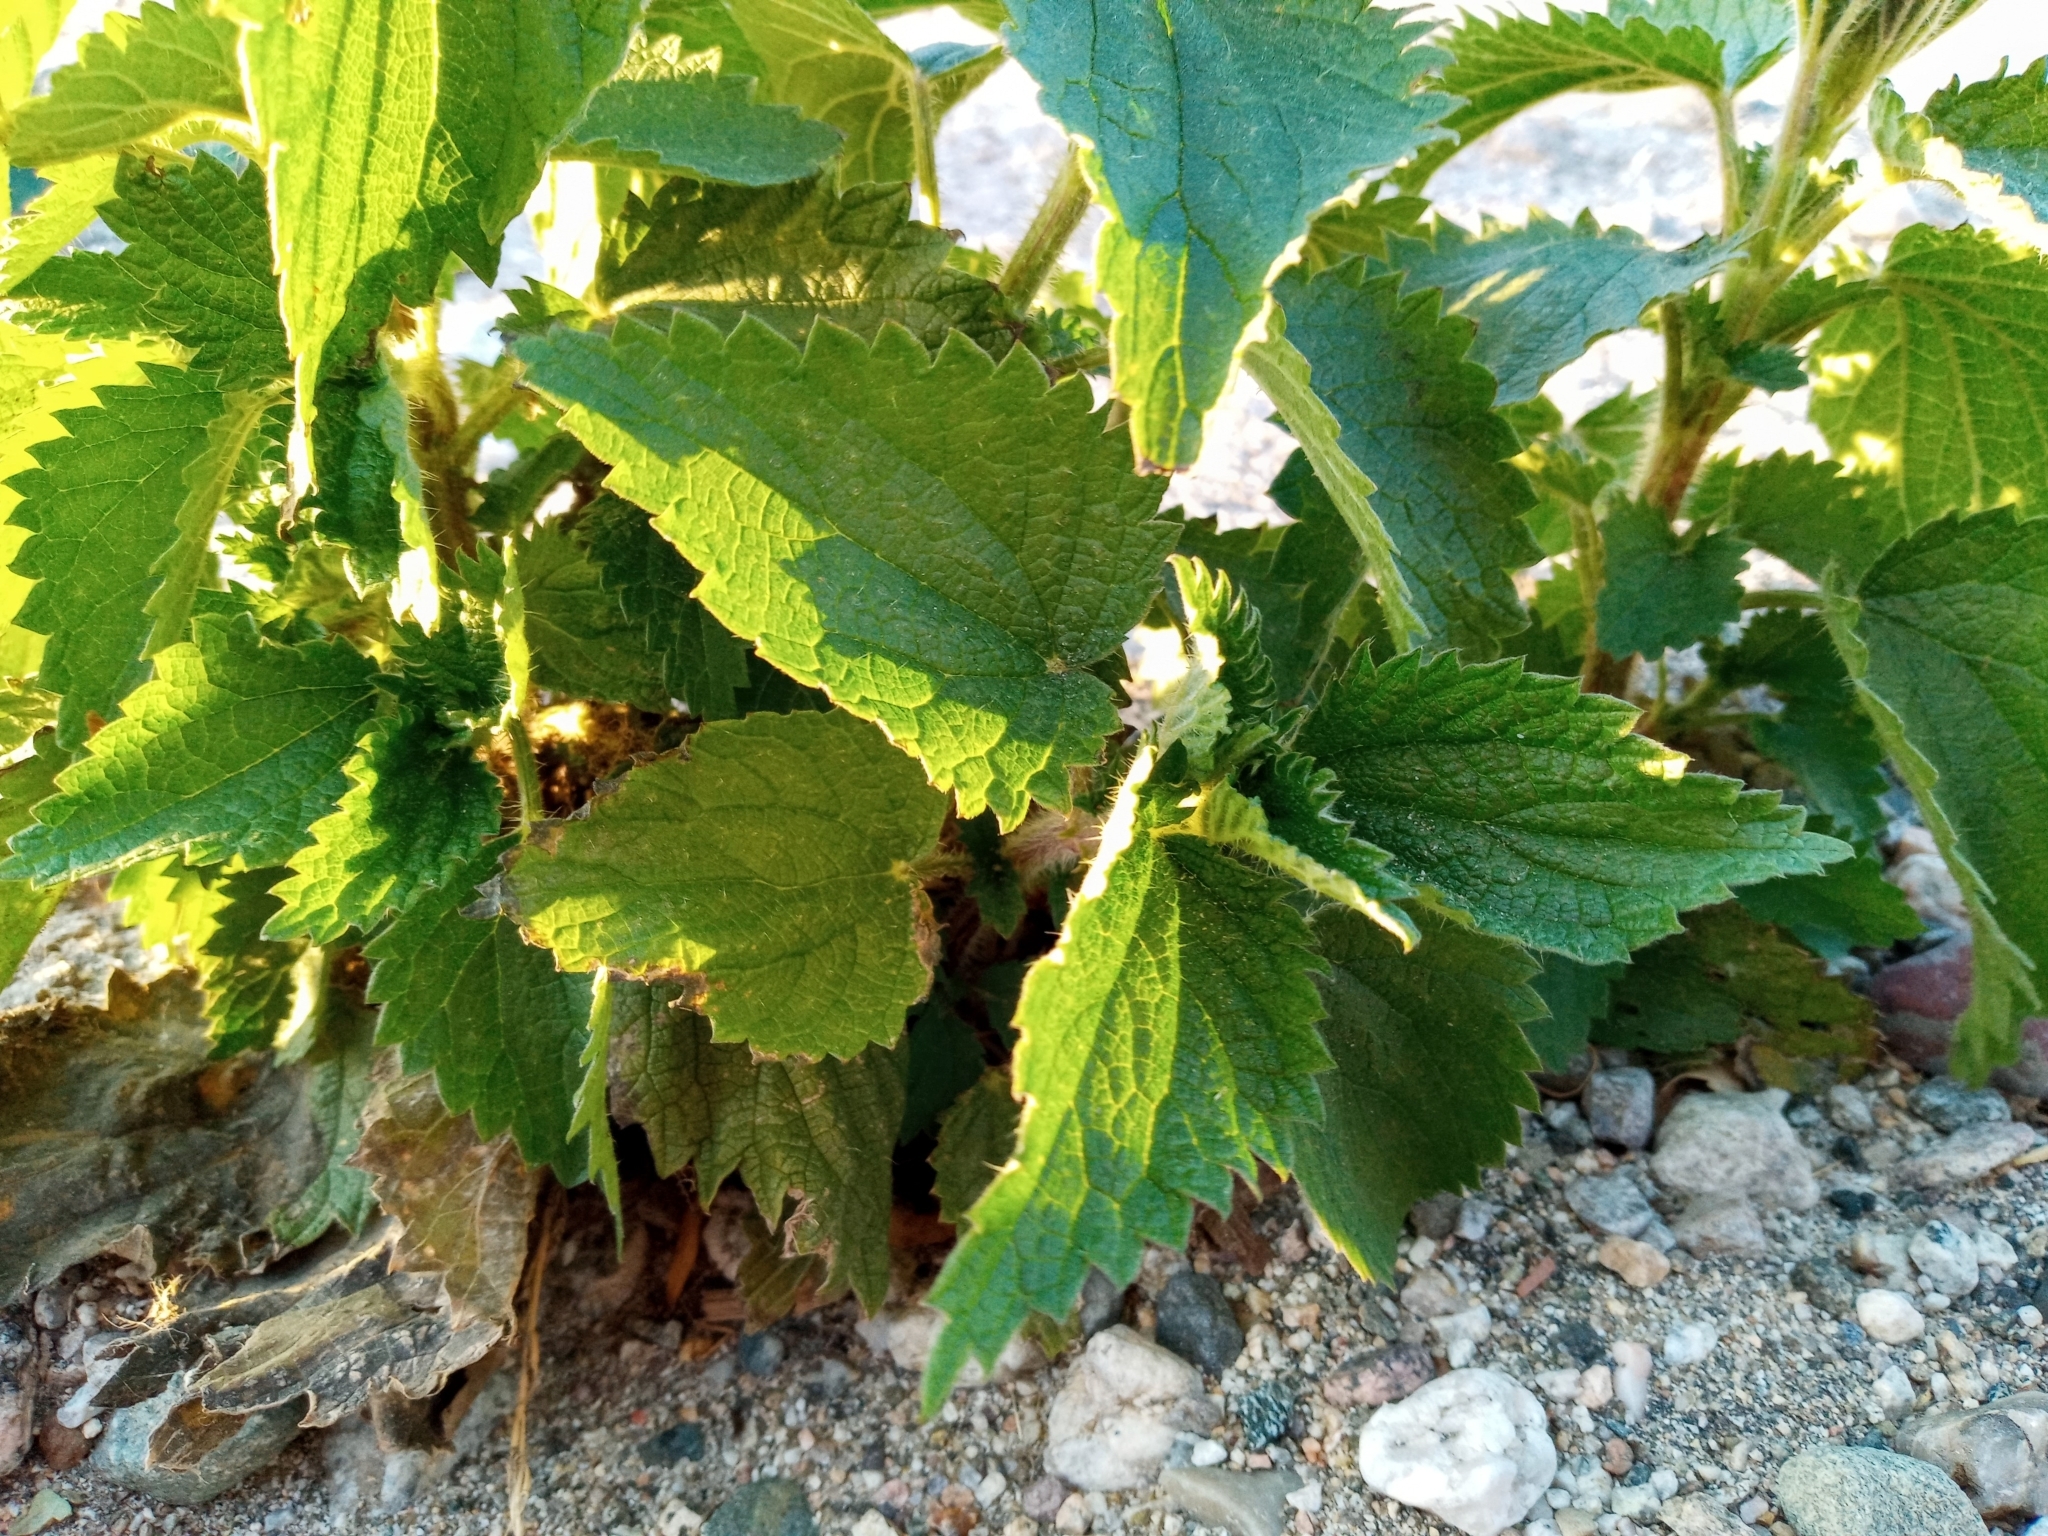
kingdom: Plantae
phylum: Tracheophyta
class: Magnoliopsida
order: Rosales
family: Urticaceae
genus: Urtica
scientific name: Urtica dioica
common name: Common nettle
